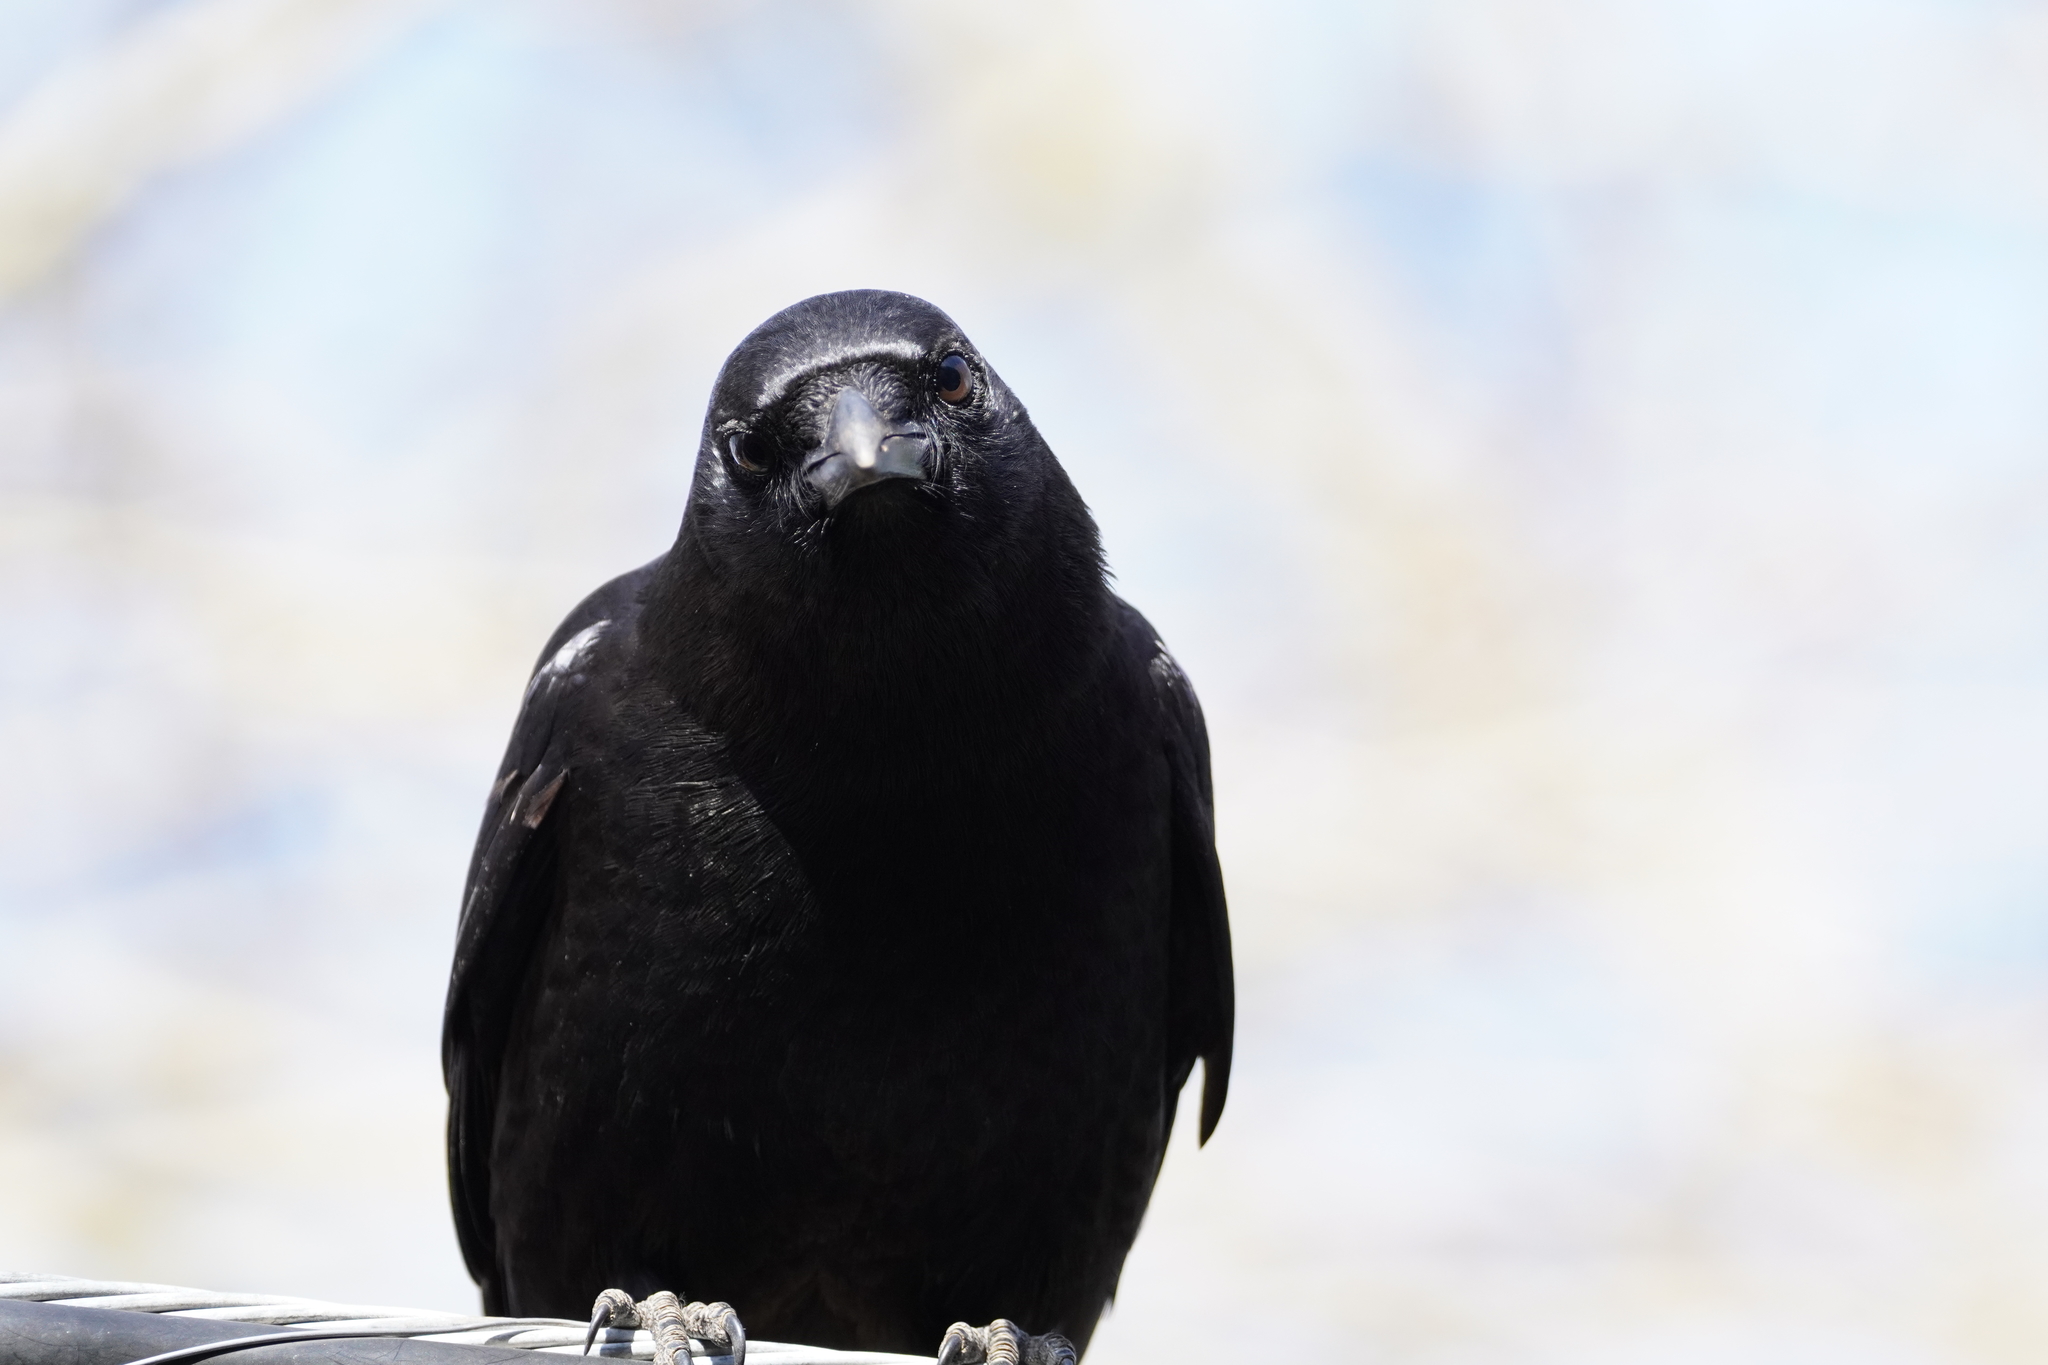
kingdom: Animalia
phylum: Chordata
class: Aves
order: Passeriformes
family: Corvidae
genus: Corvus
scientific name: Corvus brachyrhynchos
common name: American crow
